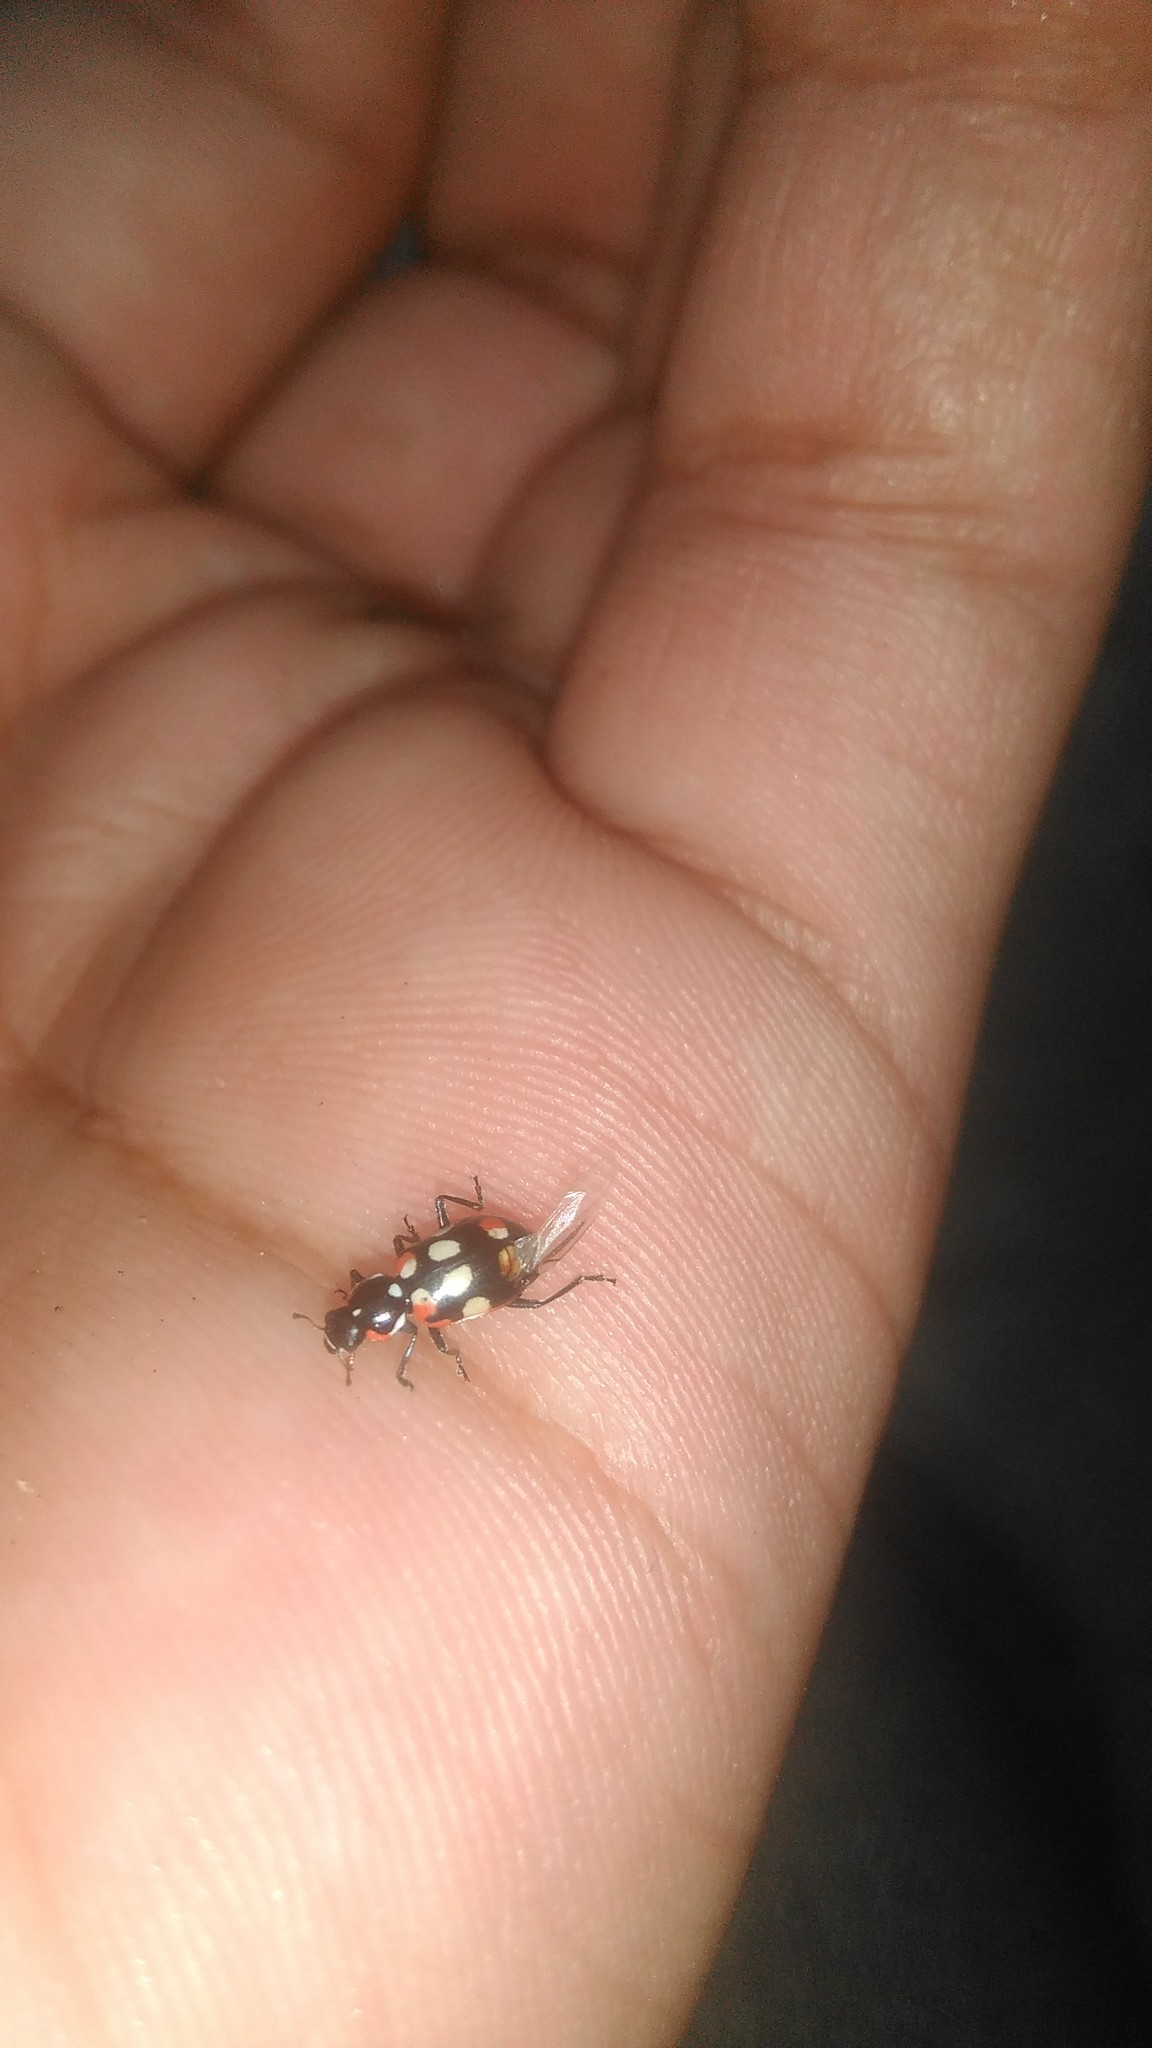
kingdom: Animalia
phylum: Arthropoda
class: Insecta
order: Coleoptera
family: Coccinellidae
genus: Eriopis
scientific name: Eriopis connexa
